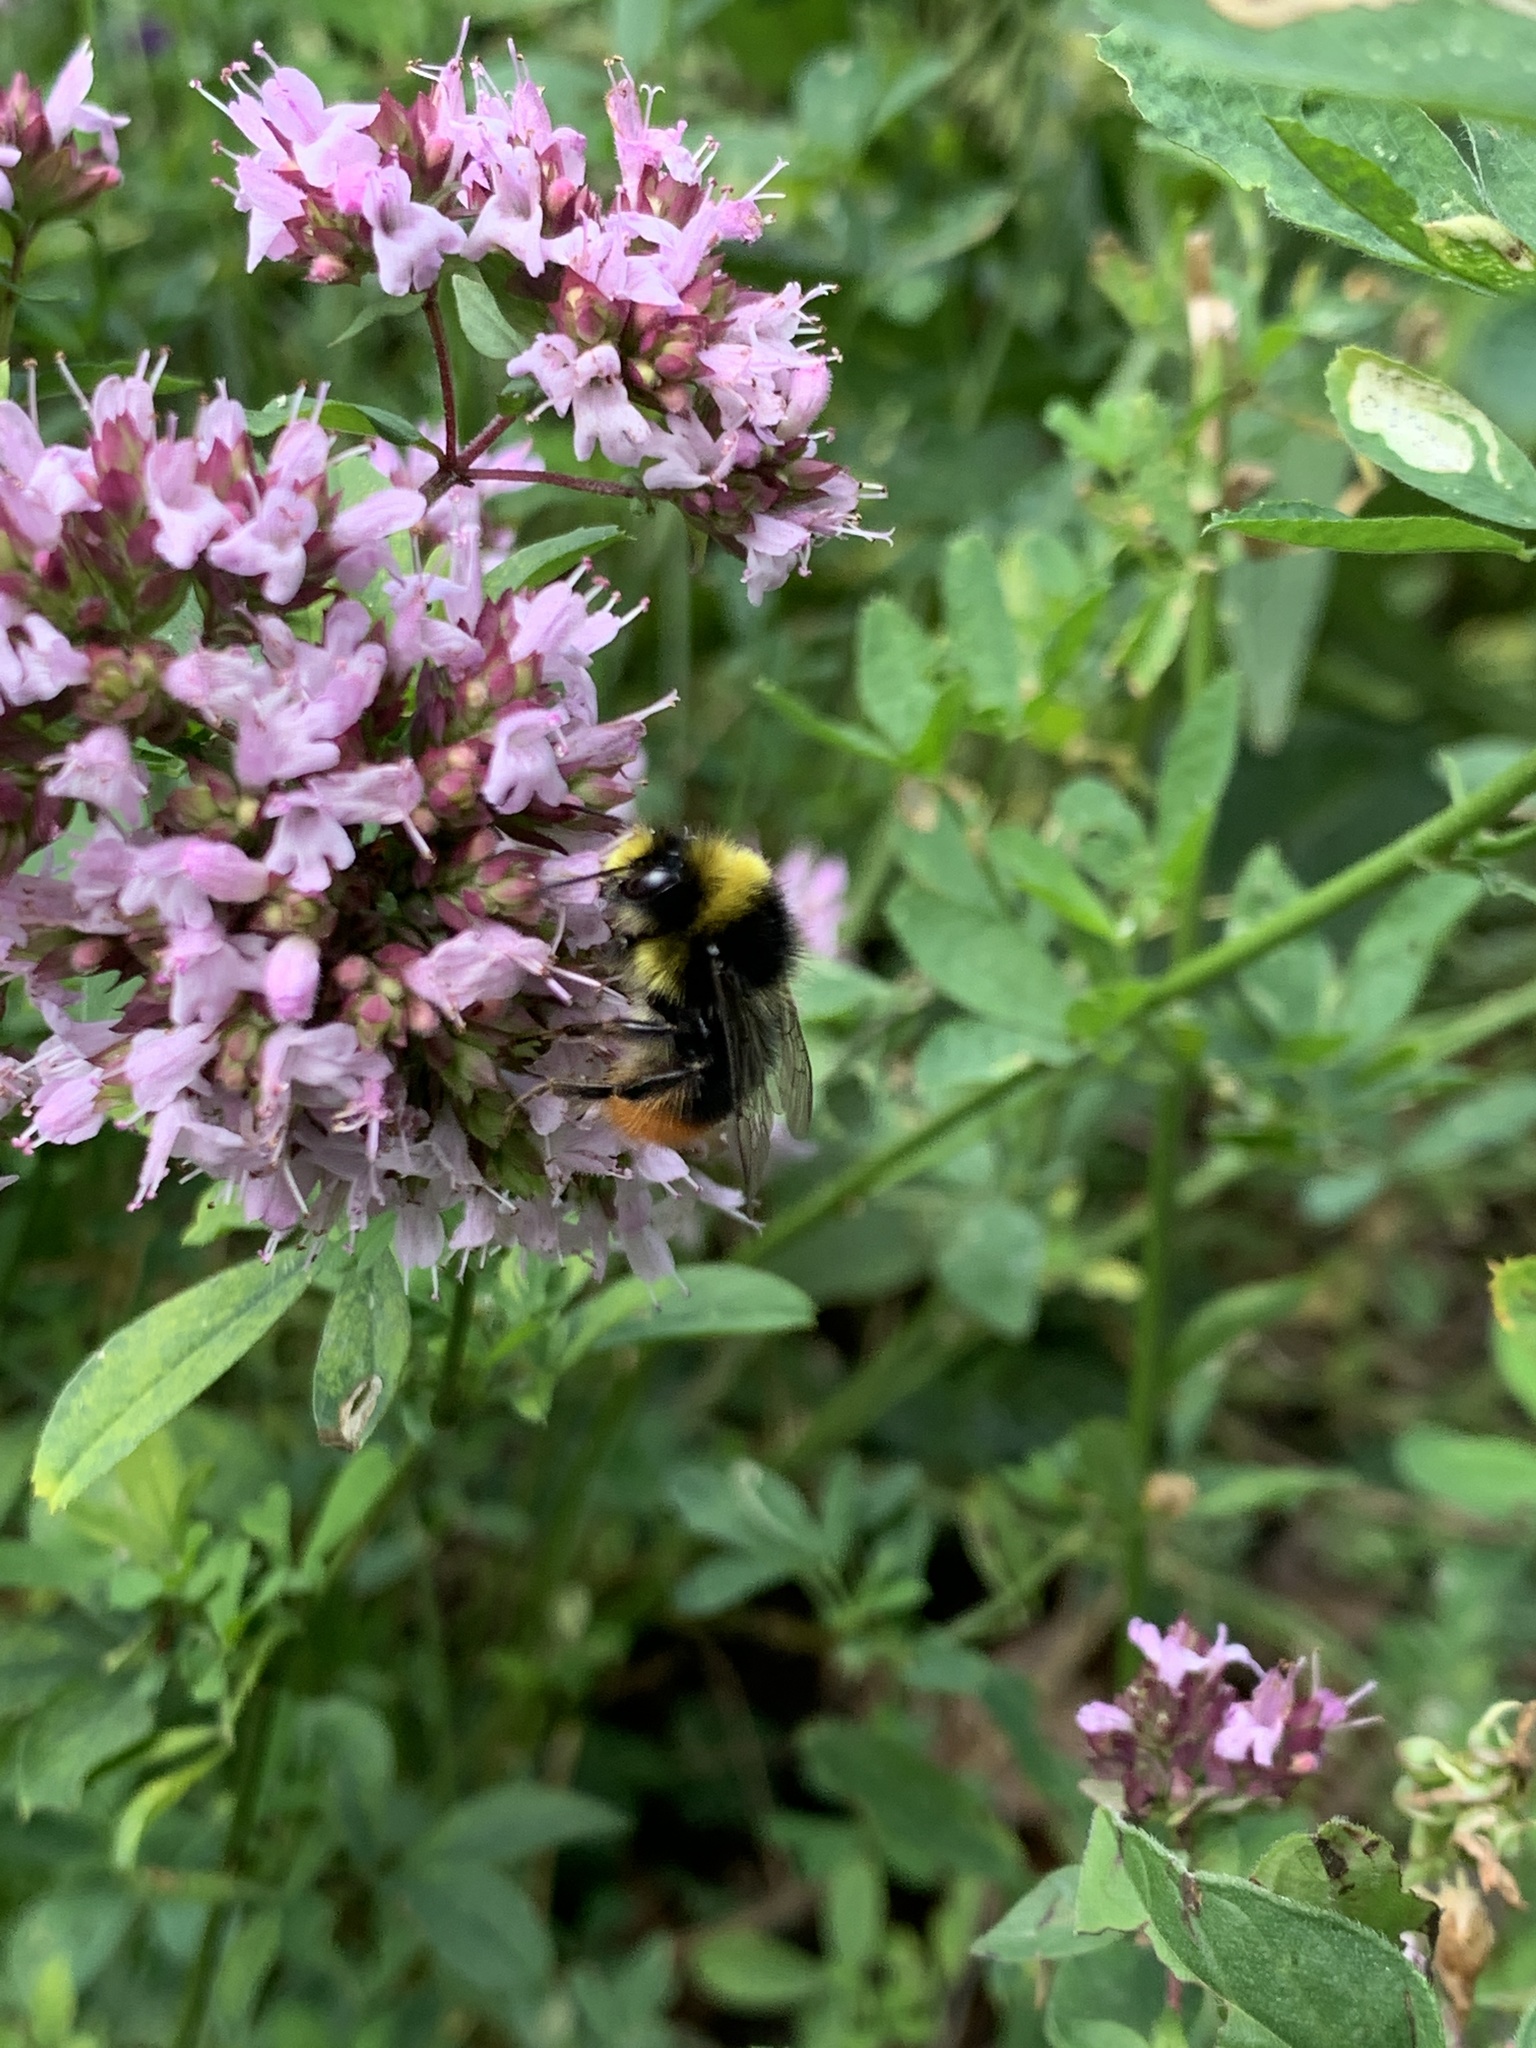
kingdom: Animalia
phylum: Arthropoda
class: Insecta
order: Hymenoptera
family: Apidae
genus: Bombus
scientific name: Bombus lapidarius
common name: Large red-tailed humble-bee
